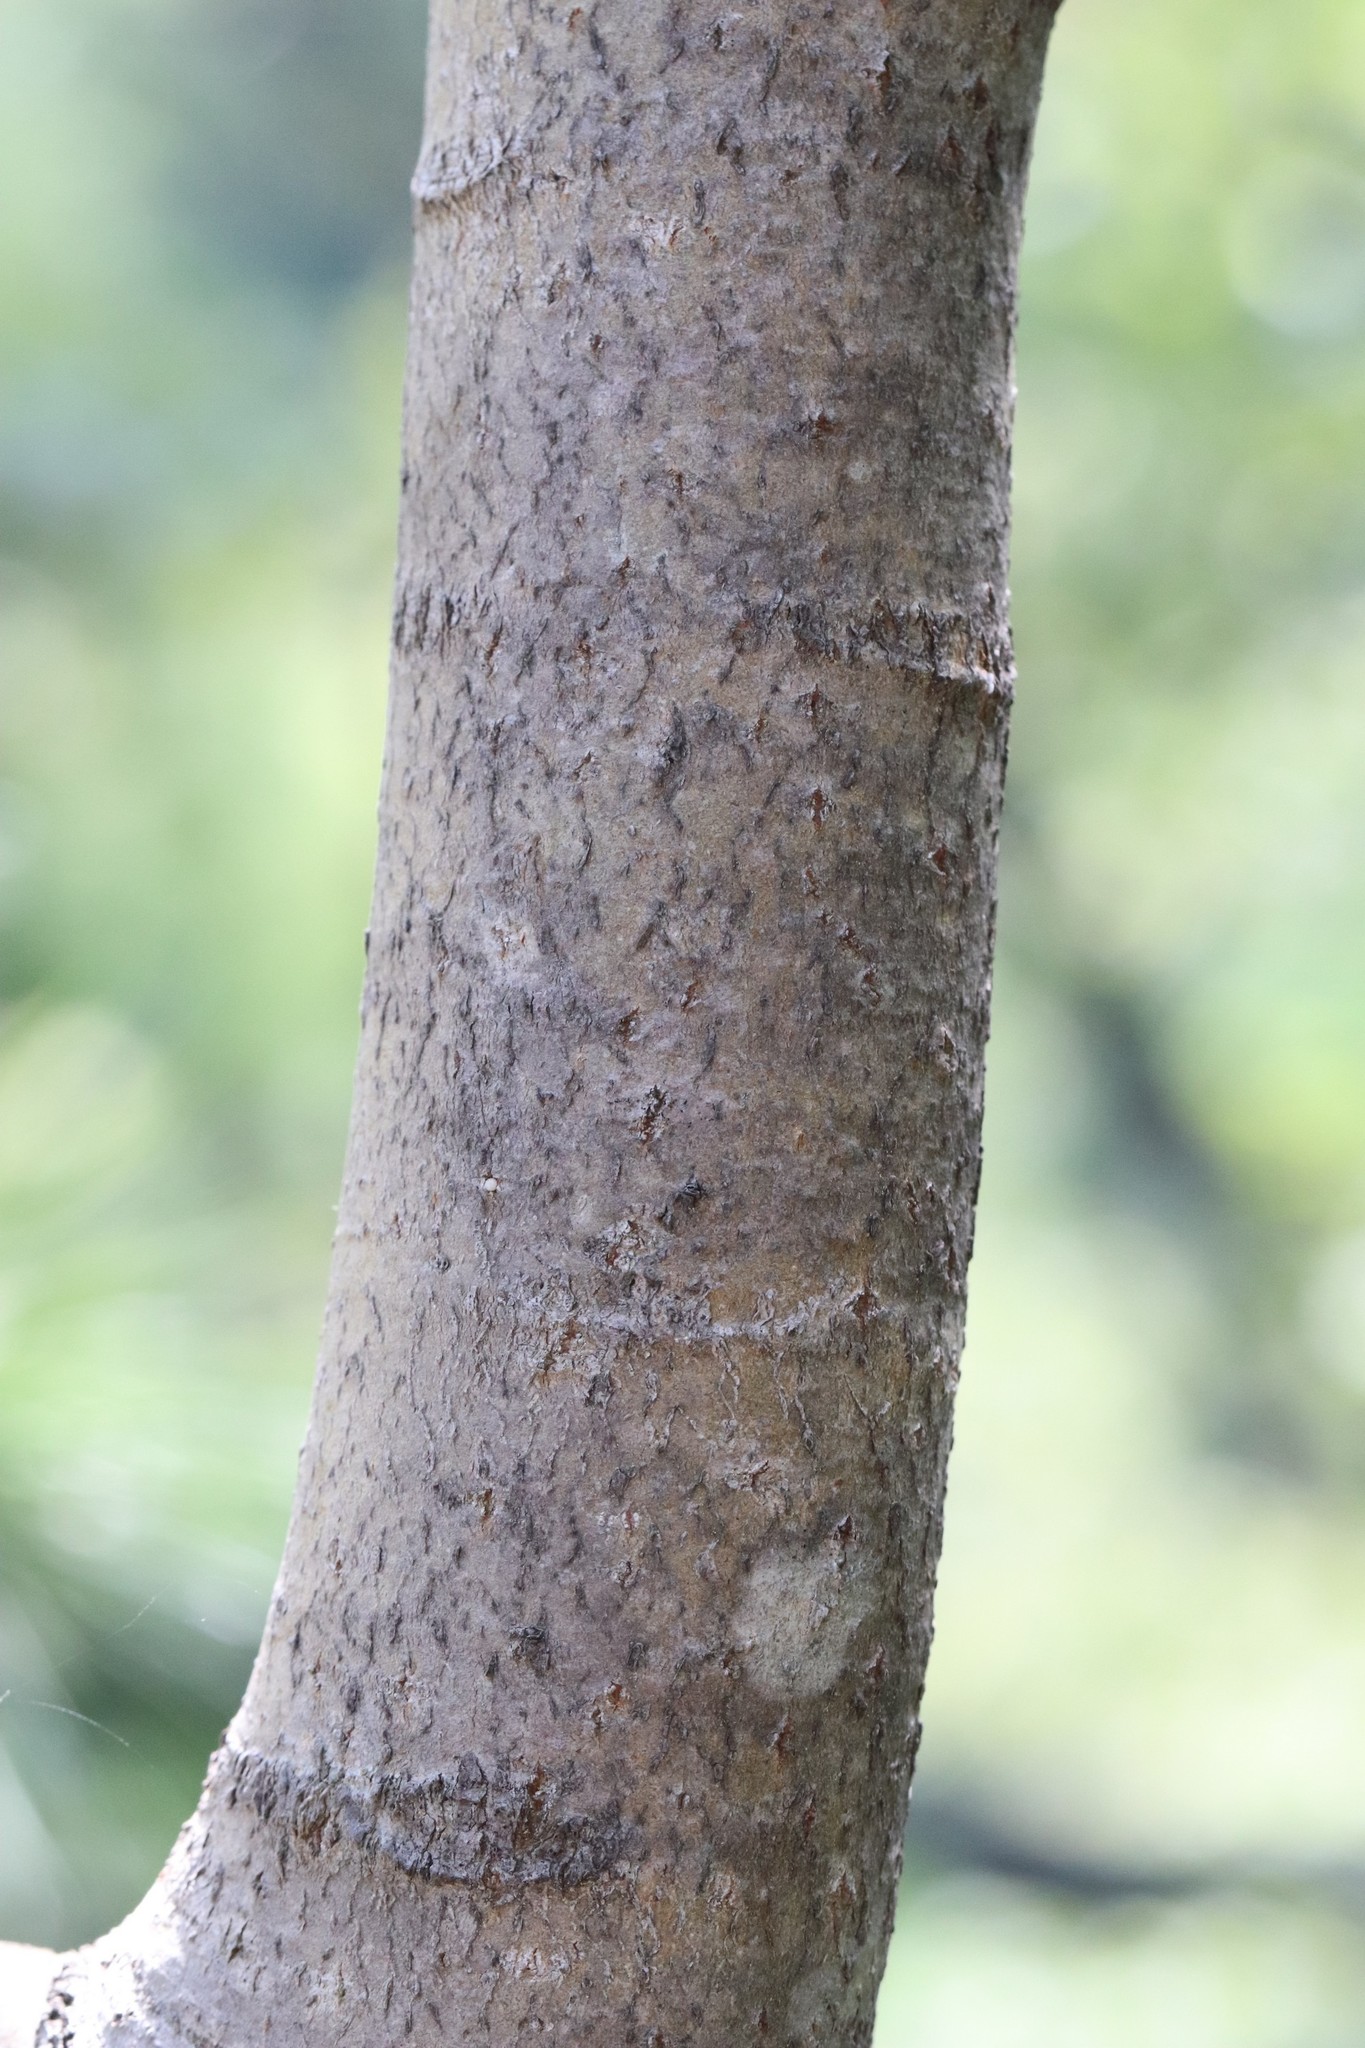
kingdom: Plantae
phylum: Tracheophyta
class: Magnoliopsida
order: Malpighiales
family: Salicaceae
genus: Populus
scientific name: Populus tremula
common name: European aspen
